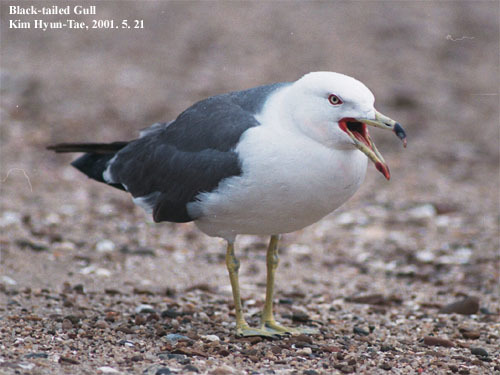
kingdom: Animalia
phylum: Chordata
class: Aves
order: Charadriiformes
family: Laridae
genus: Larus
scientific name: Larus crassirostris
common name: Black-tailed gull
